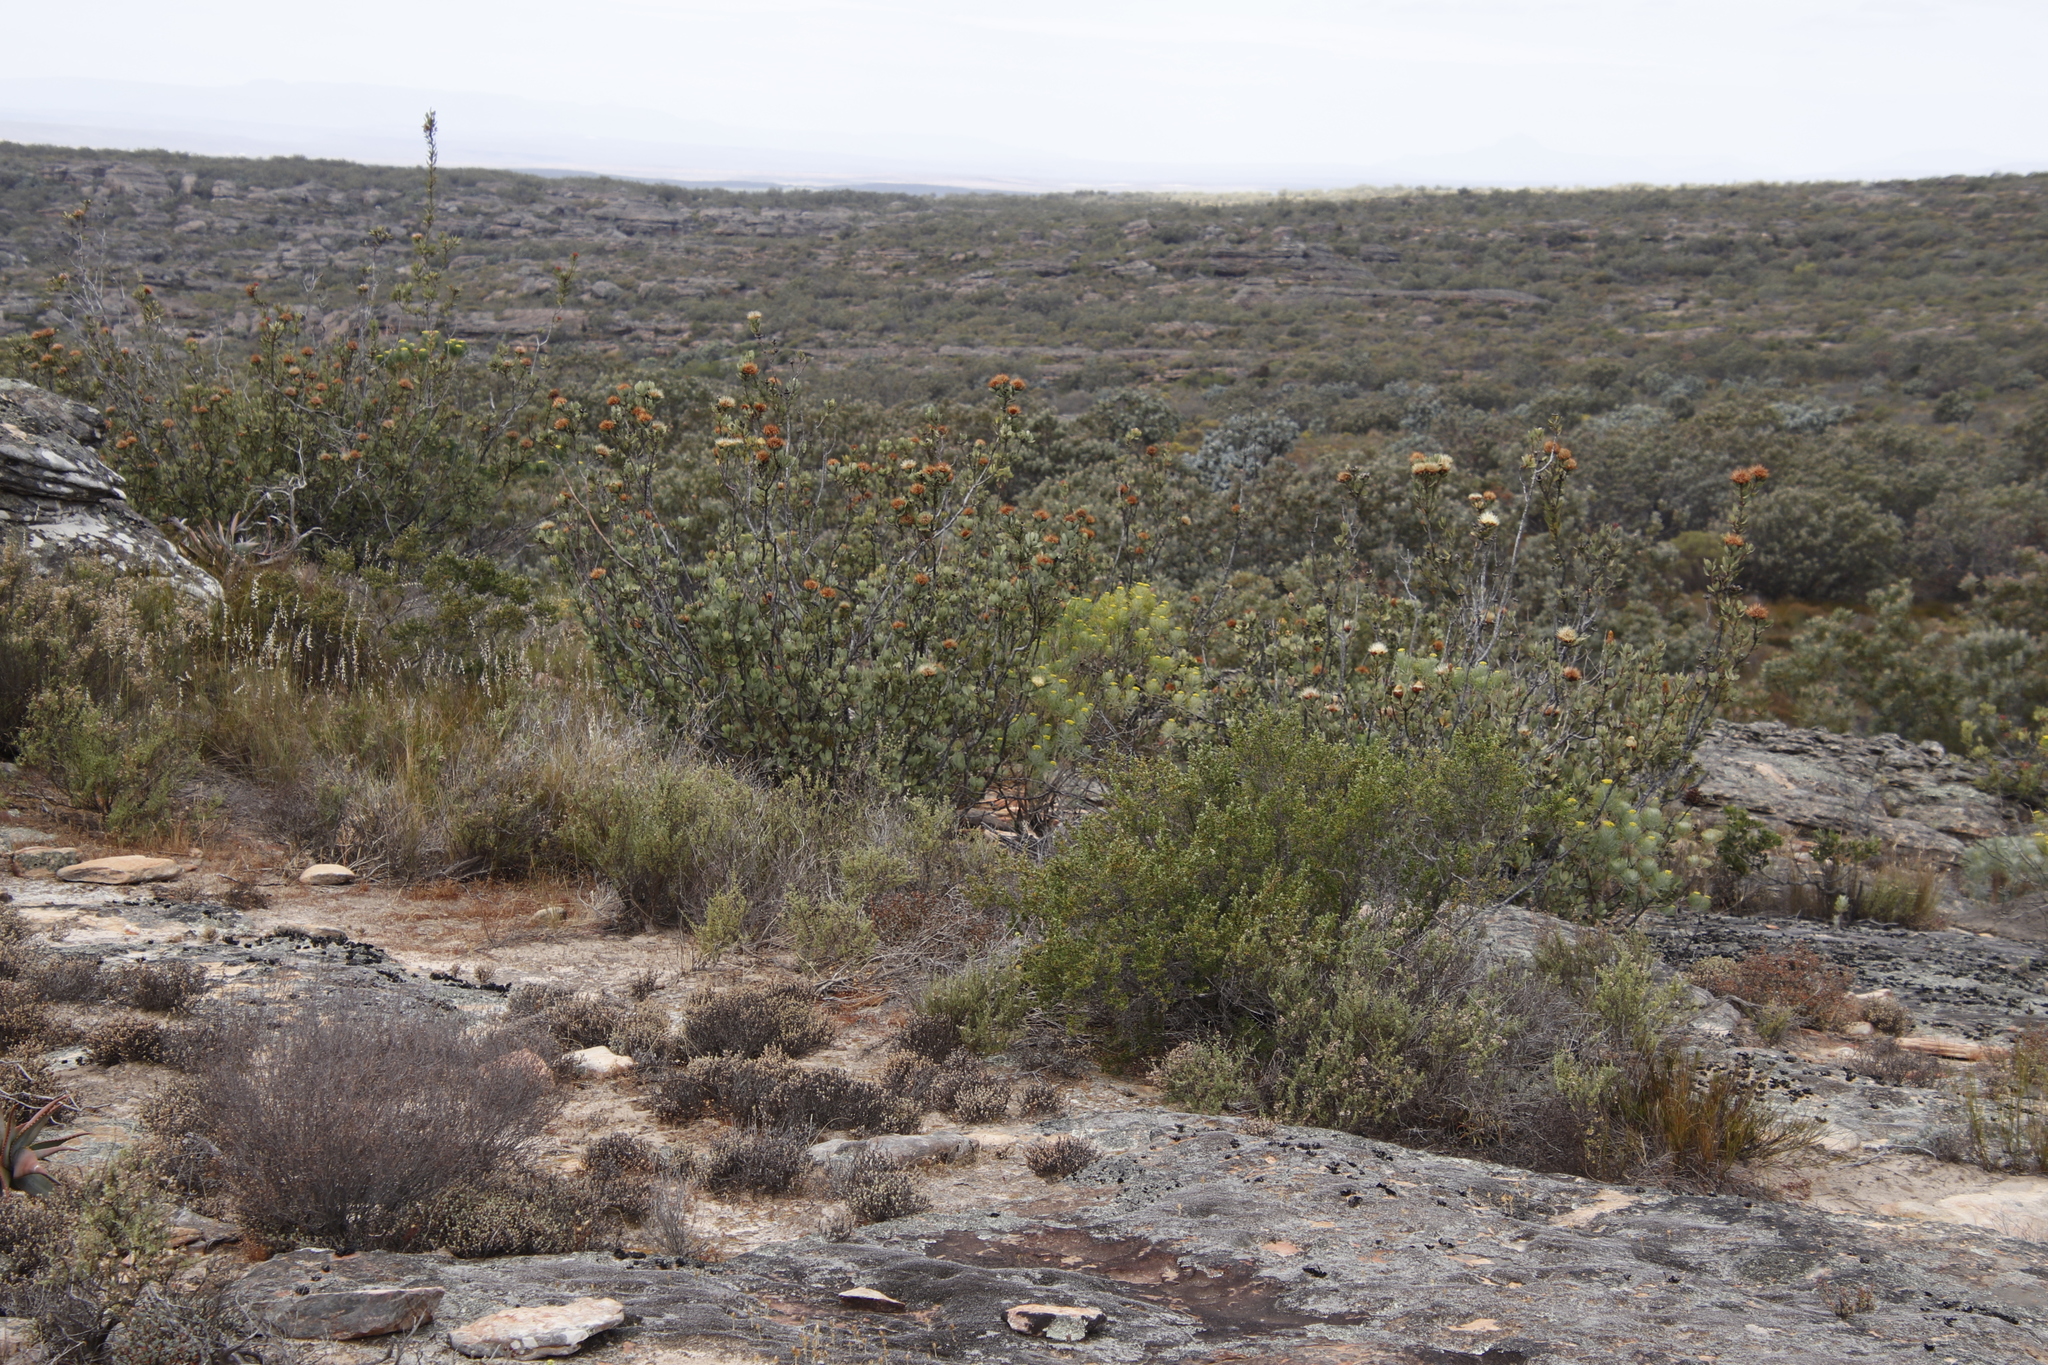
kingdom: Plantae
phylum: Tracheophyta
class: Magnoliopsida
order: Proteales
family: Proteaceae
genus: Protea
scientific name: Protea glabra
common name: Chestnut sugarbush
